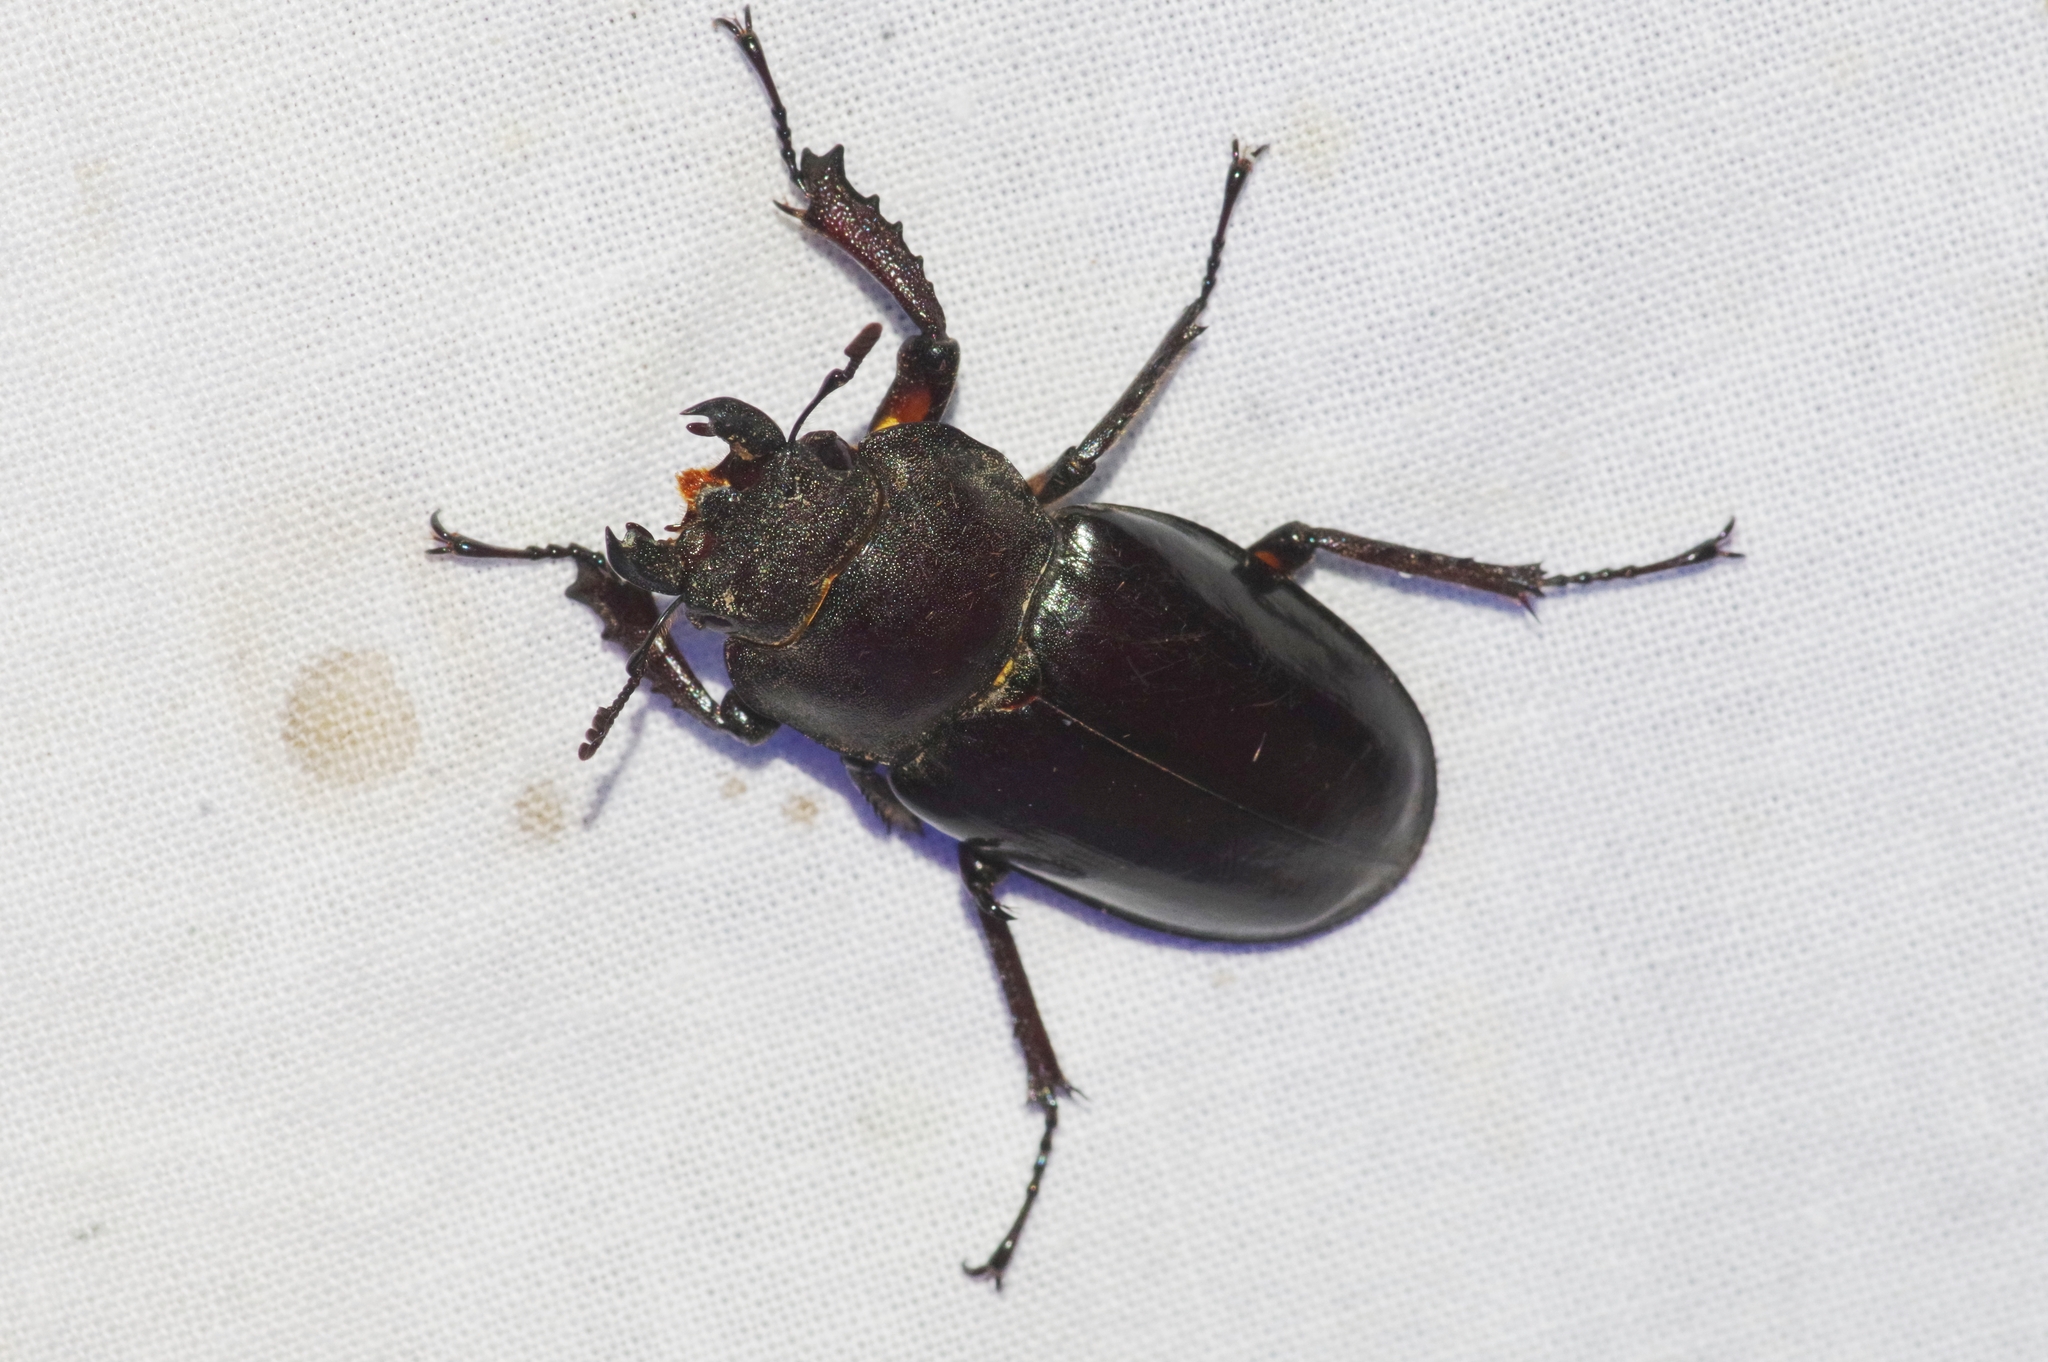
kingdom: Animalia
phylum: Arthropoda
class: Insecta
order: Coleoptera
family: Lucanidae
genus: Lucanus
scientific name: Lucanus maculifemoratus
